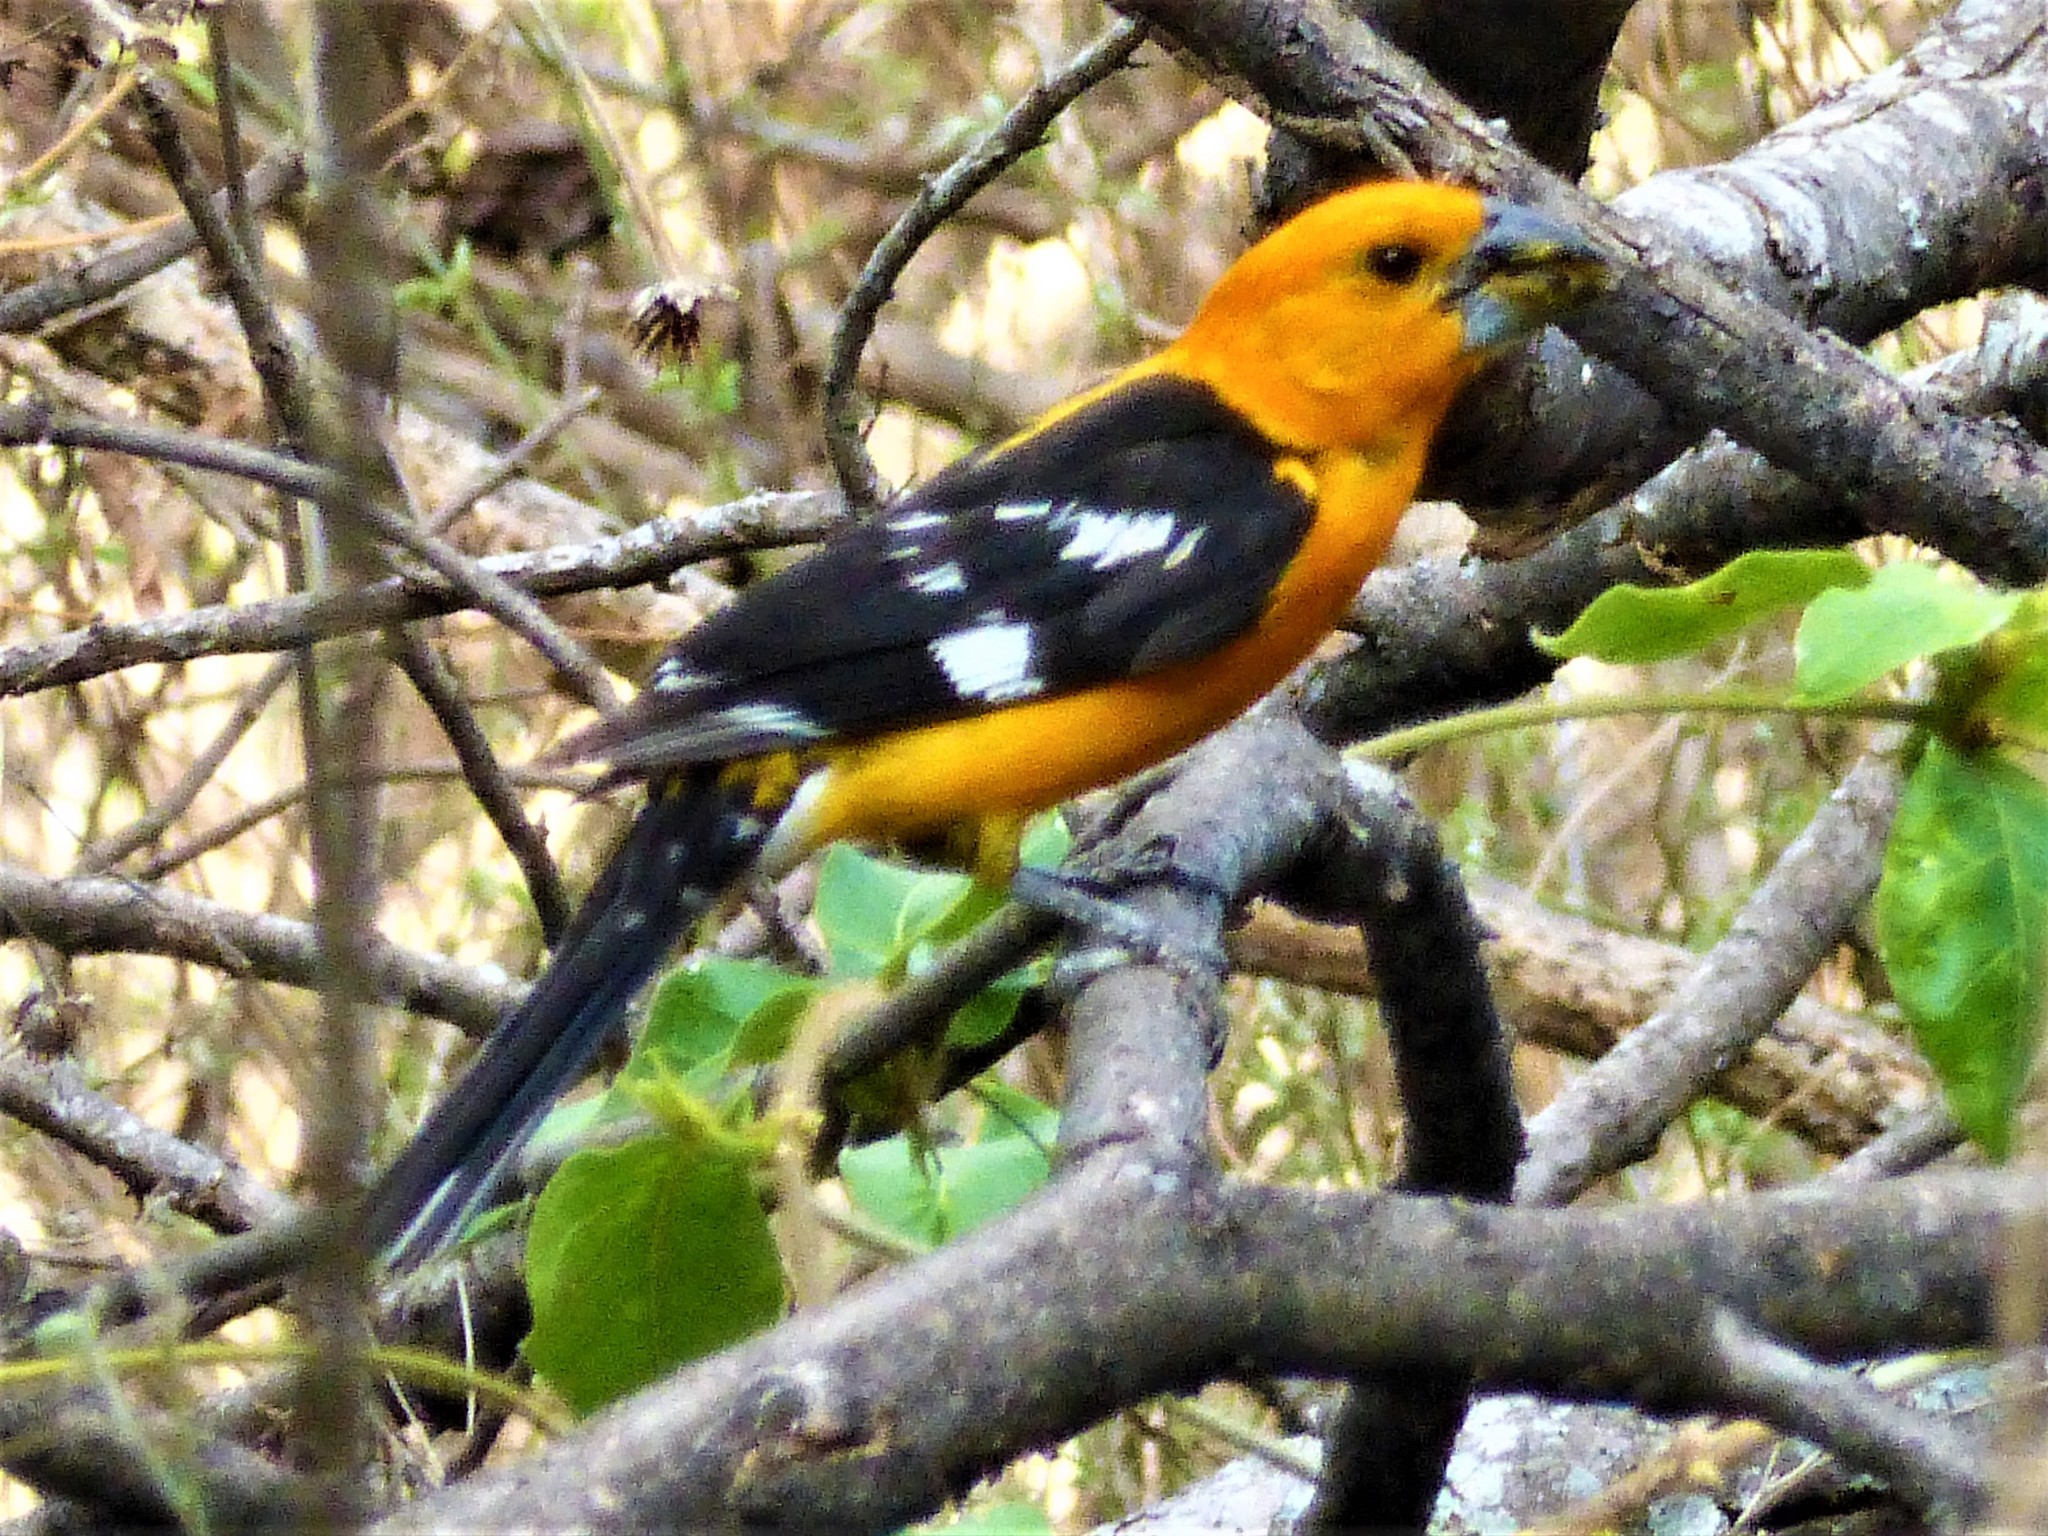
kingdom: Animalia
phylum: Chordata
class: Aves
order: Passeriformes
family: Cardinalidae
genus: Pheucticus
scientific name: Pheucticus chrysopeplus
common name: Yellow grosbeak
